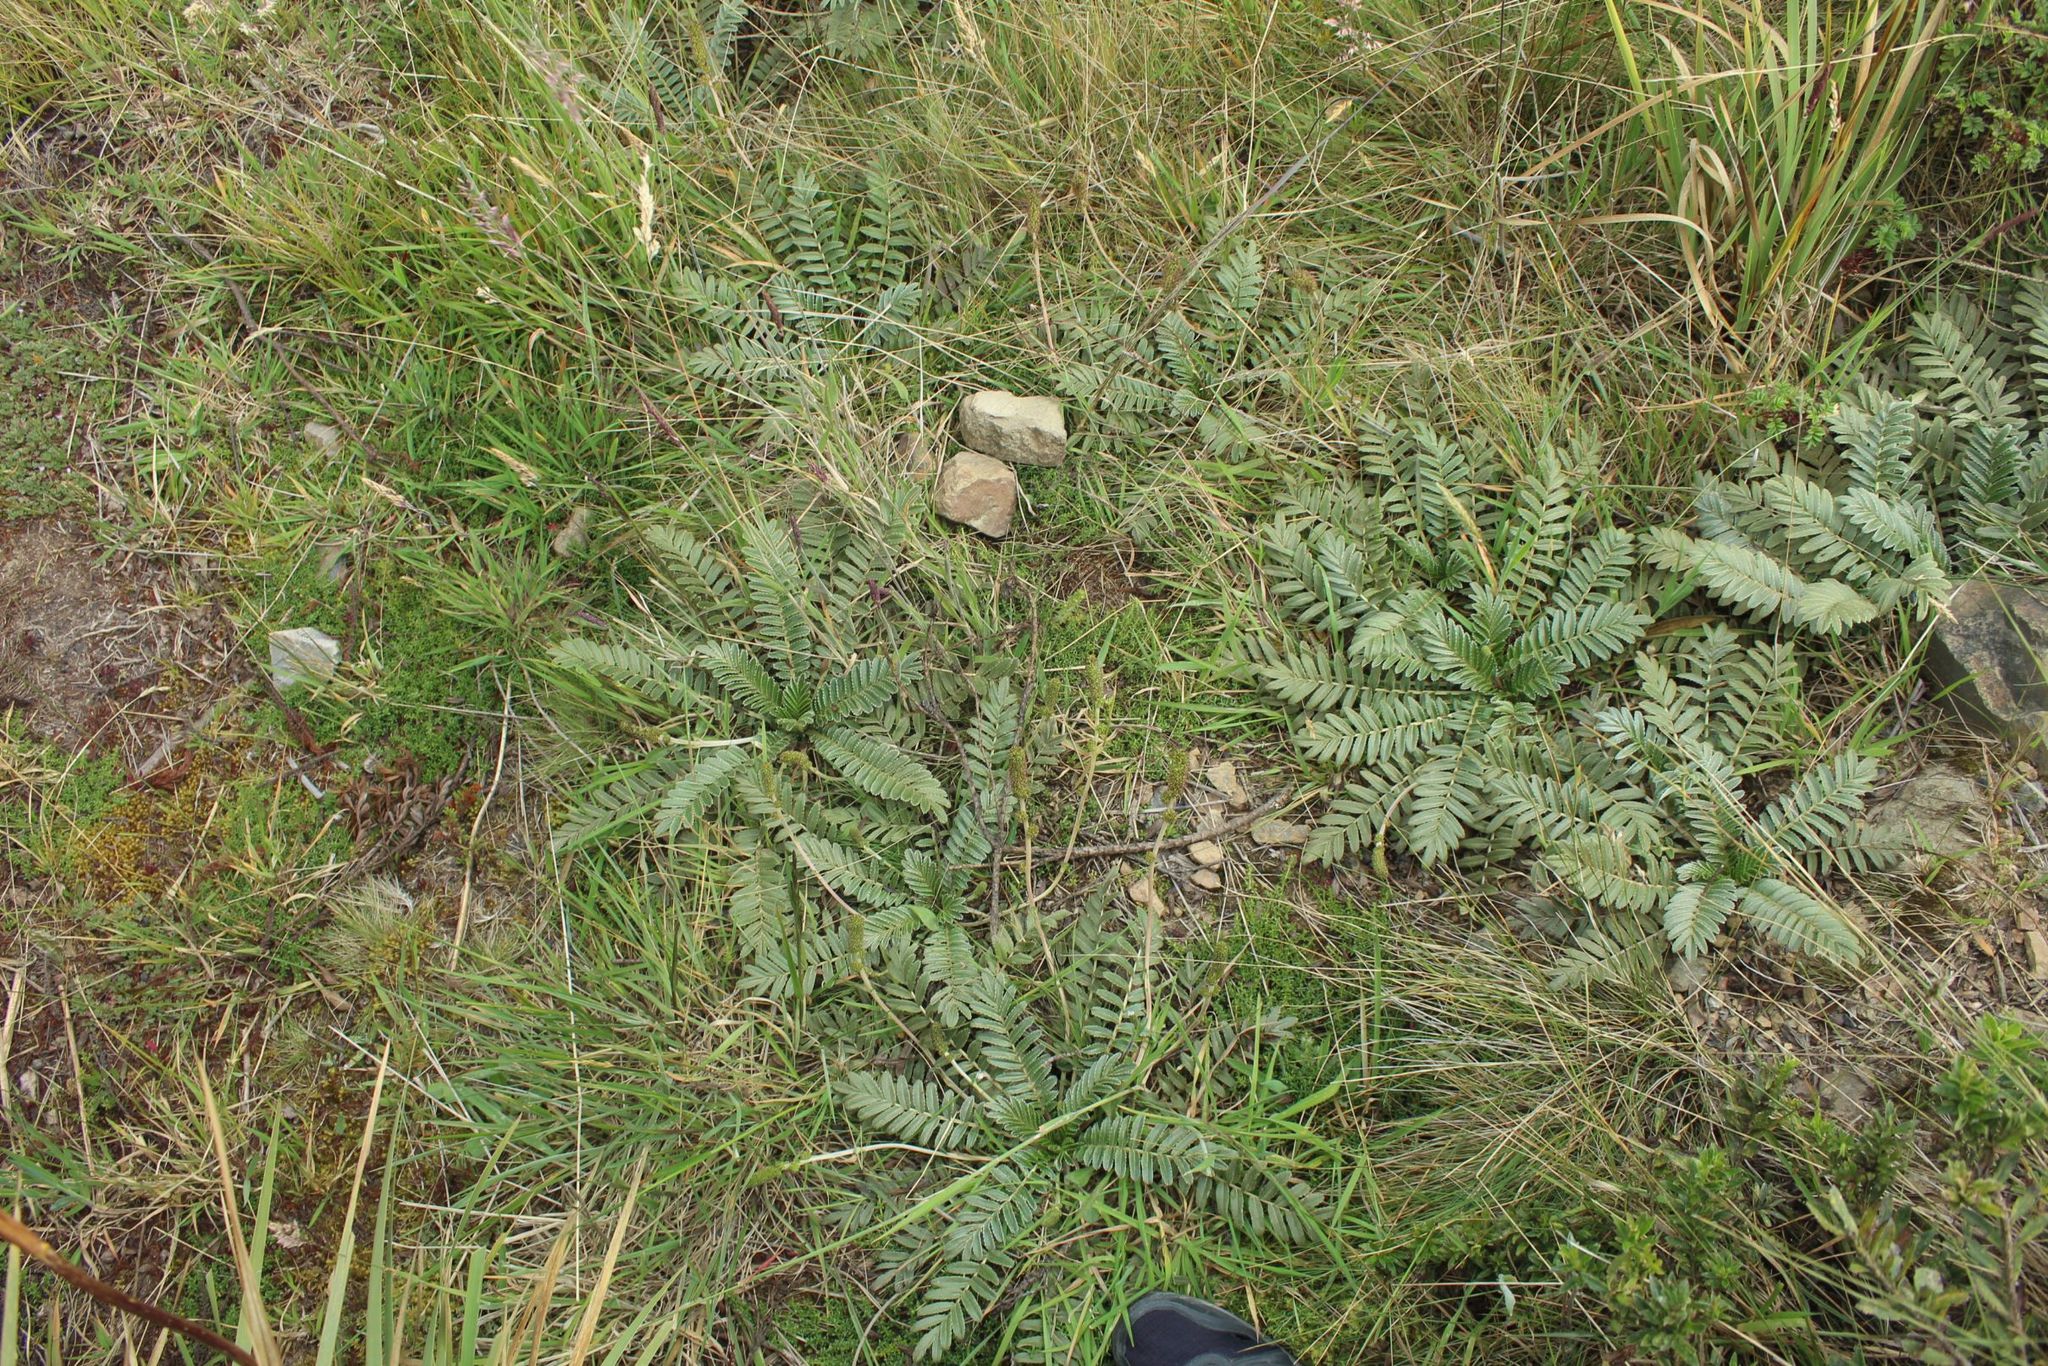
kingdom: Plantae
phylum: Tracheophyta
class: Magnoliopsida
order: Rosales
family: Rosaceae
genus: Acaena
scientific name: Acaena cylindristachya
